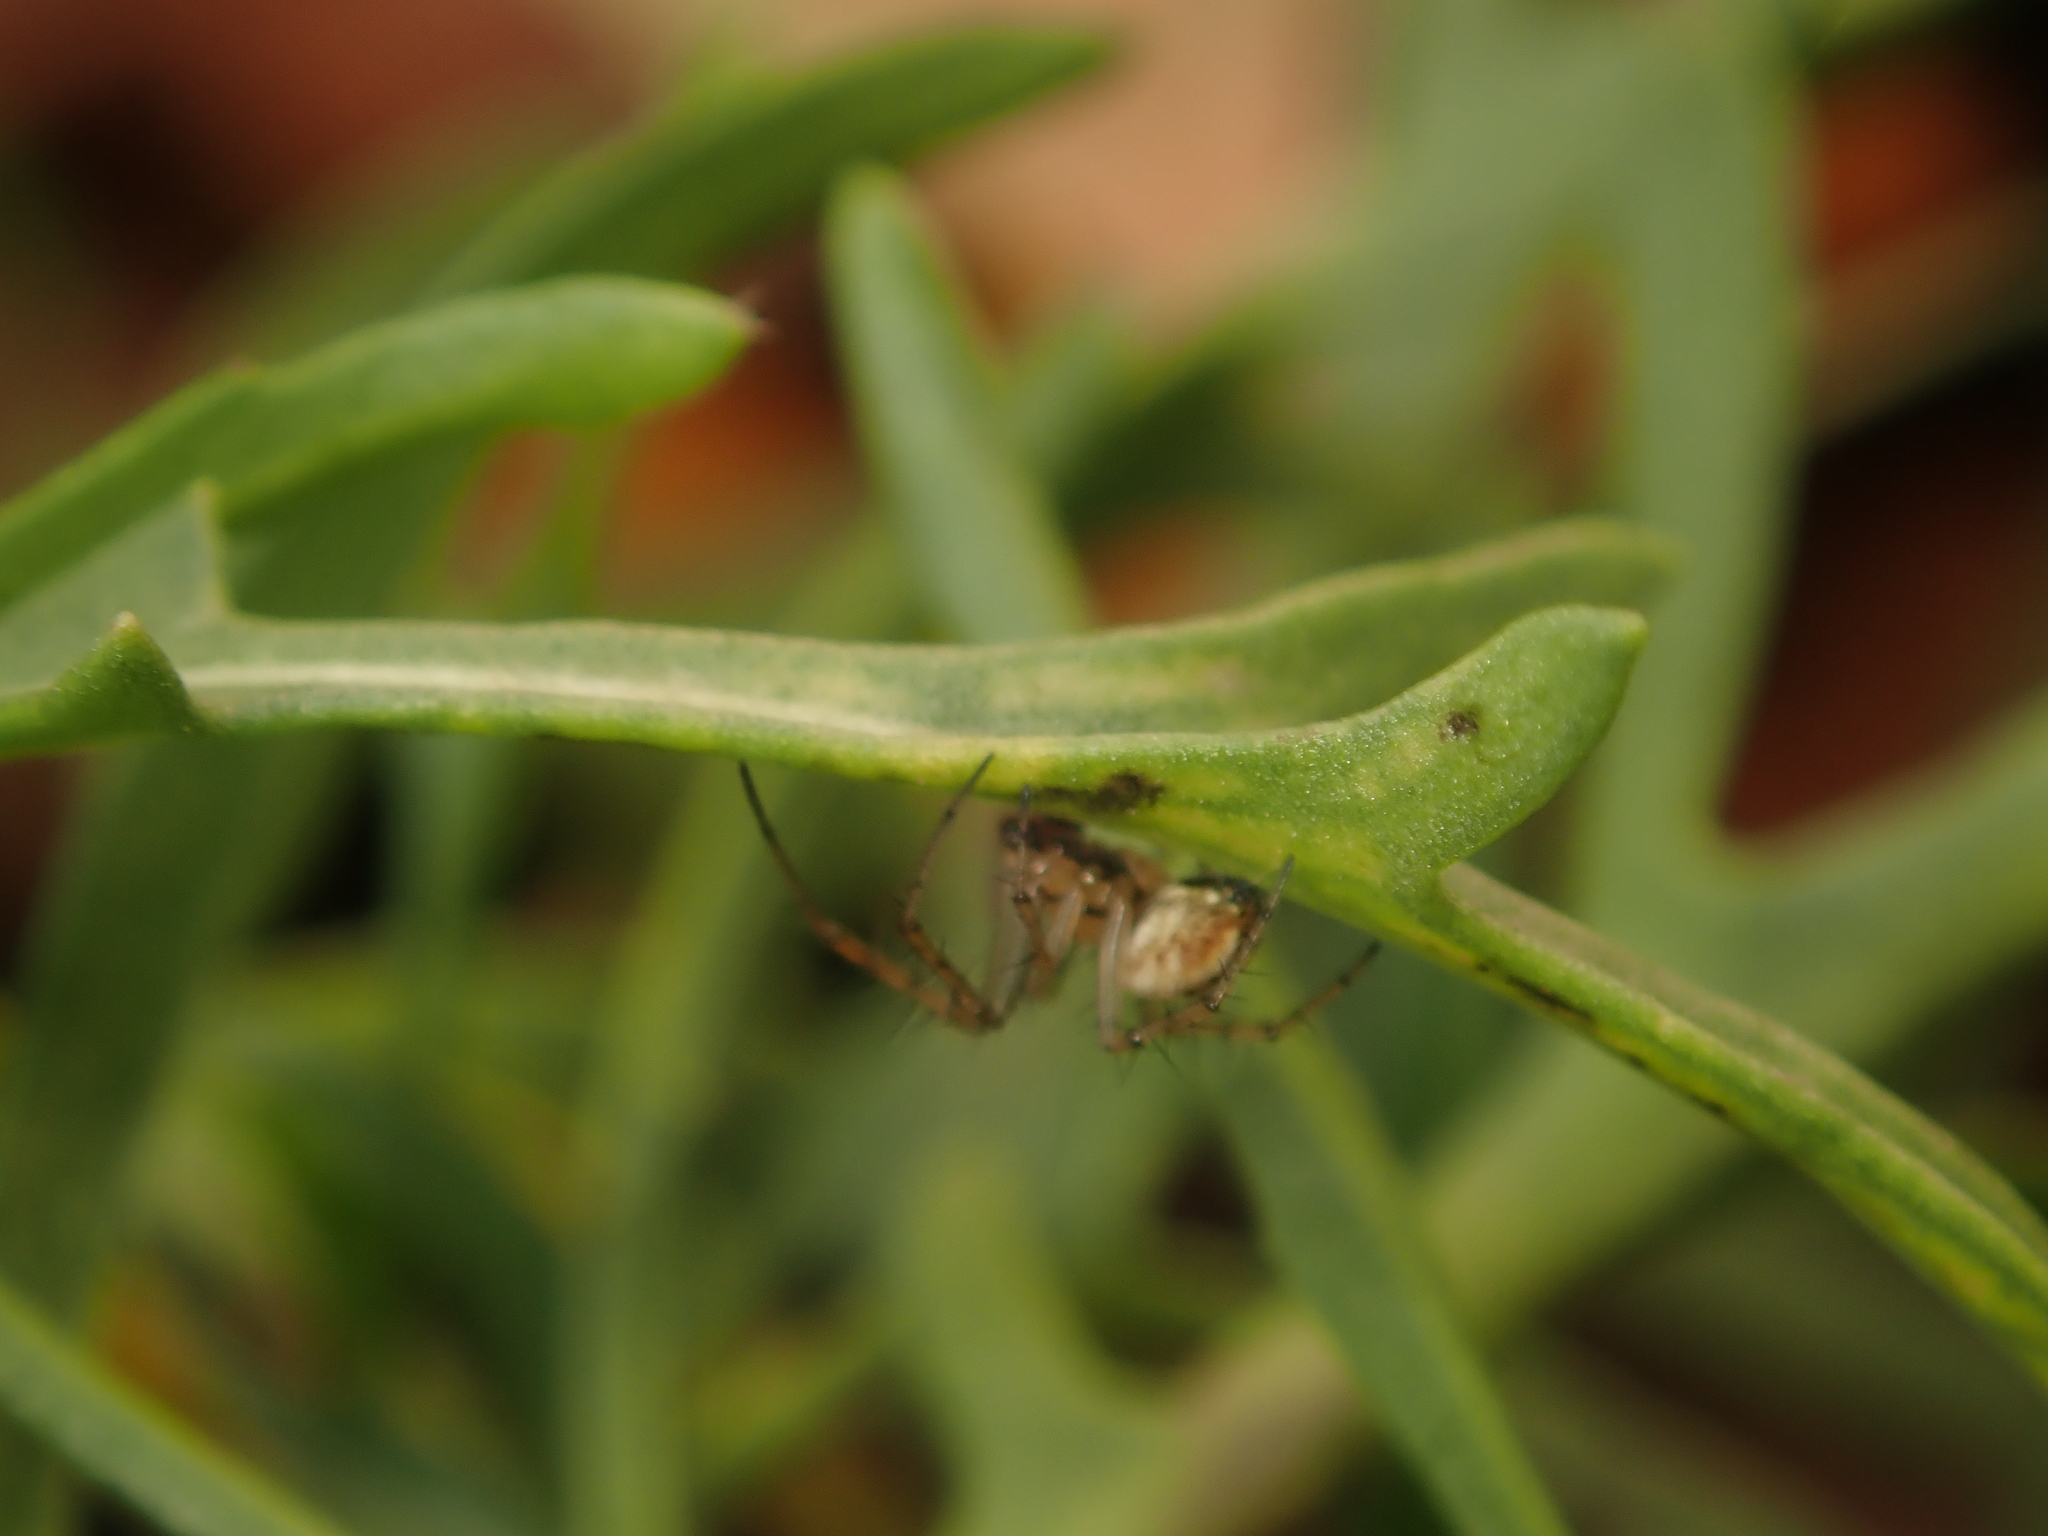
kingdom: Animalia
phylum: Arthropoda
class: Arachnida
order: Araneae
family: Araneidae
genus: Mangora
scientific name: Mangora acalypha
